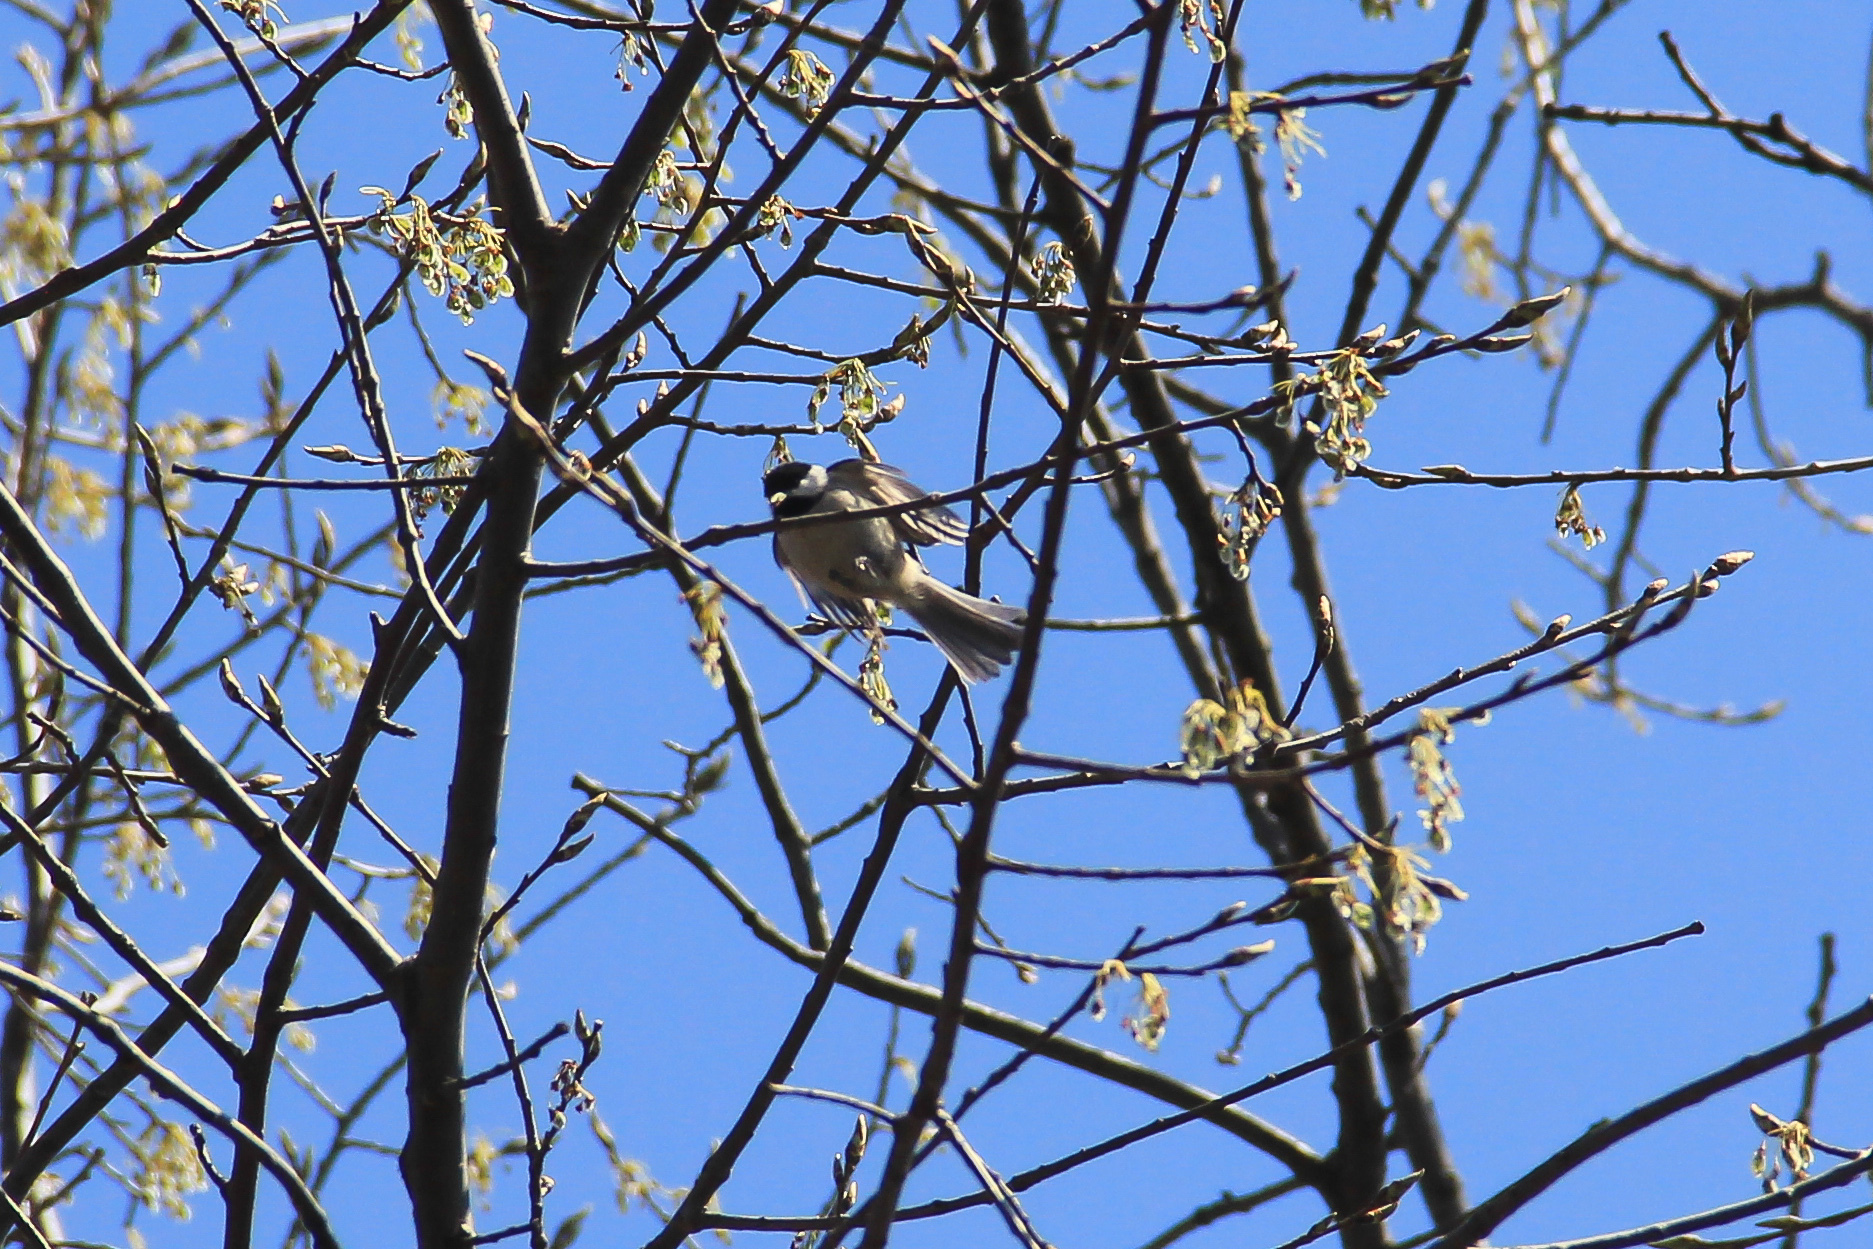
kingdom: Animalia
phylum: Chordata
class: Aves
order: Passeriformes
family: Paridae
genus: Poecile
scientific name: Poecile atricapillus
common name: Black-capped chickadee
